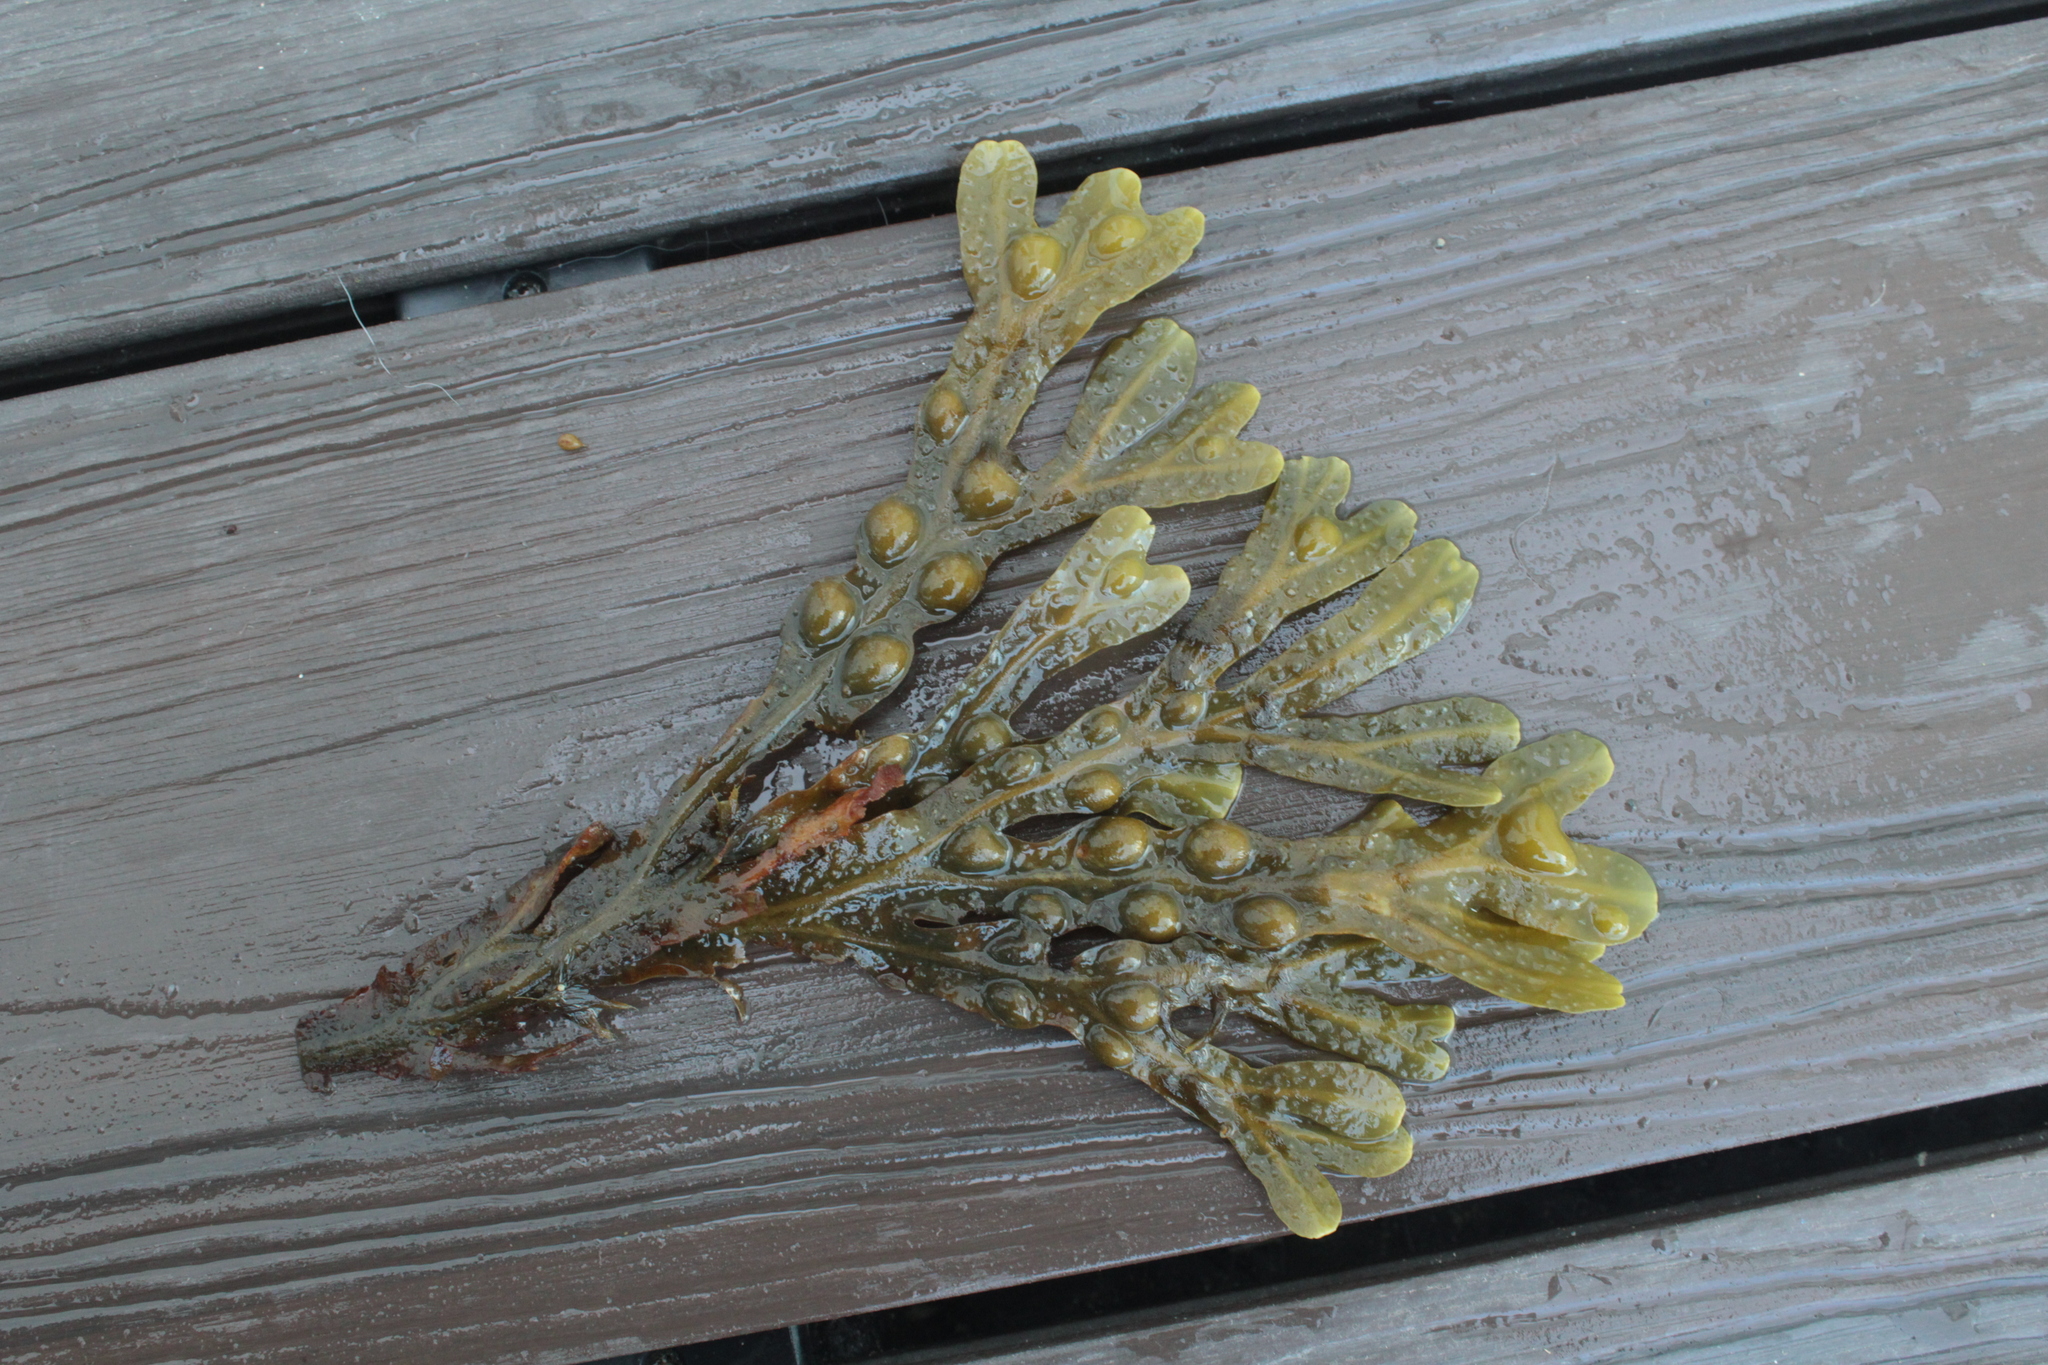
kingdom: Chromista
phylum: Ochrophyta
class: Phaeophyceae
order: Fucales
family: Fucaceae
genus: Fucus
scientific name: Fucus vesiculosus
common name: Bladder wrack
